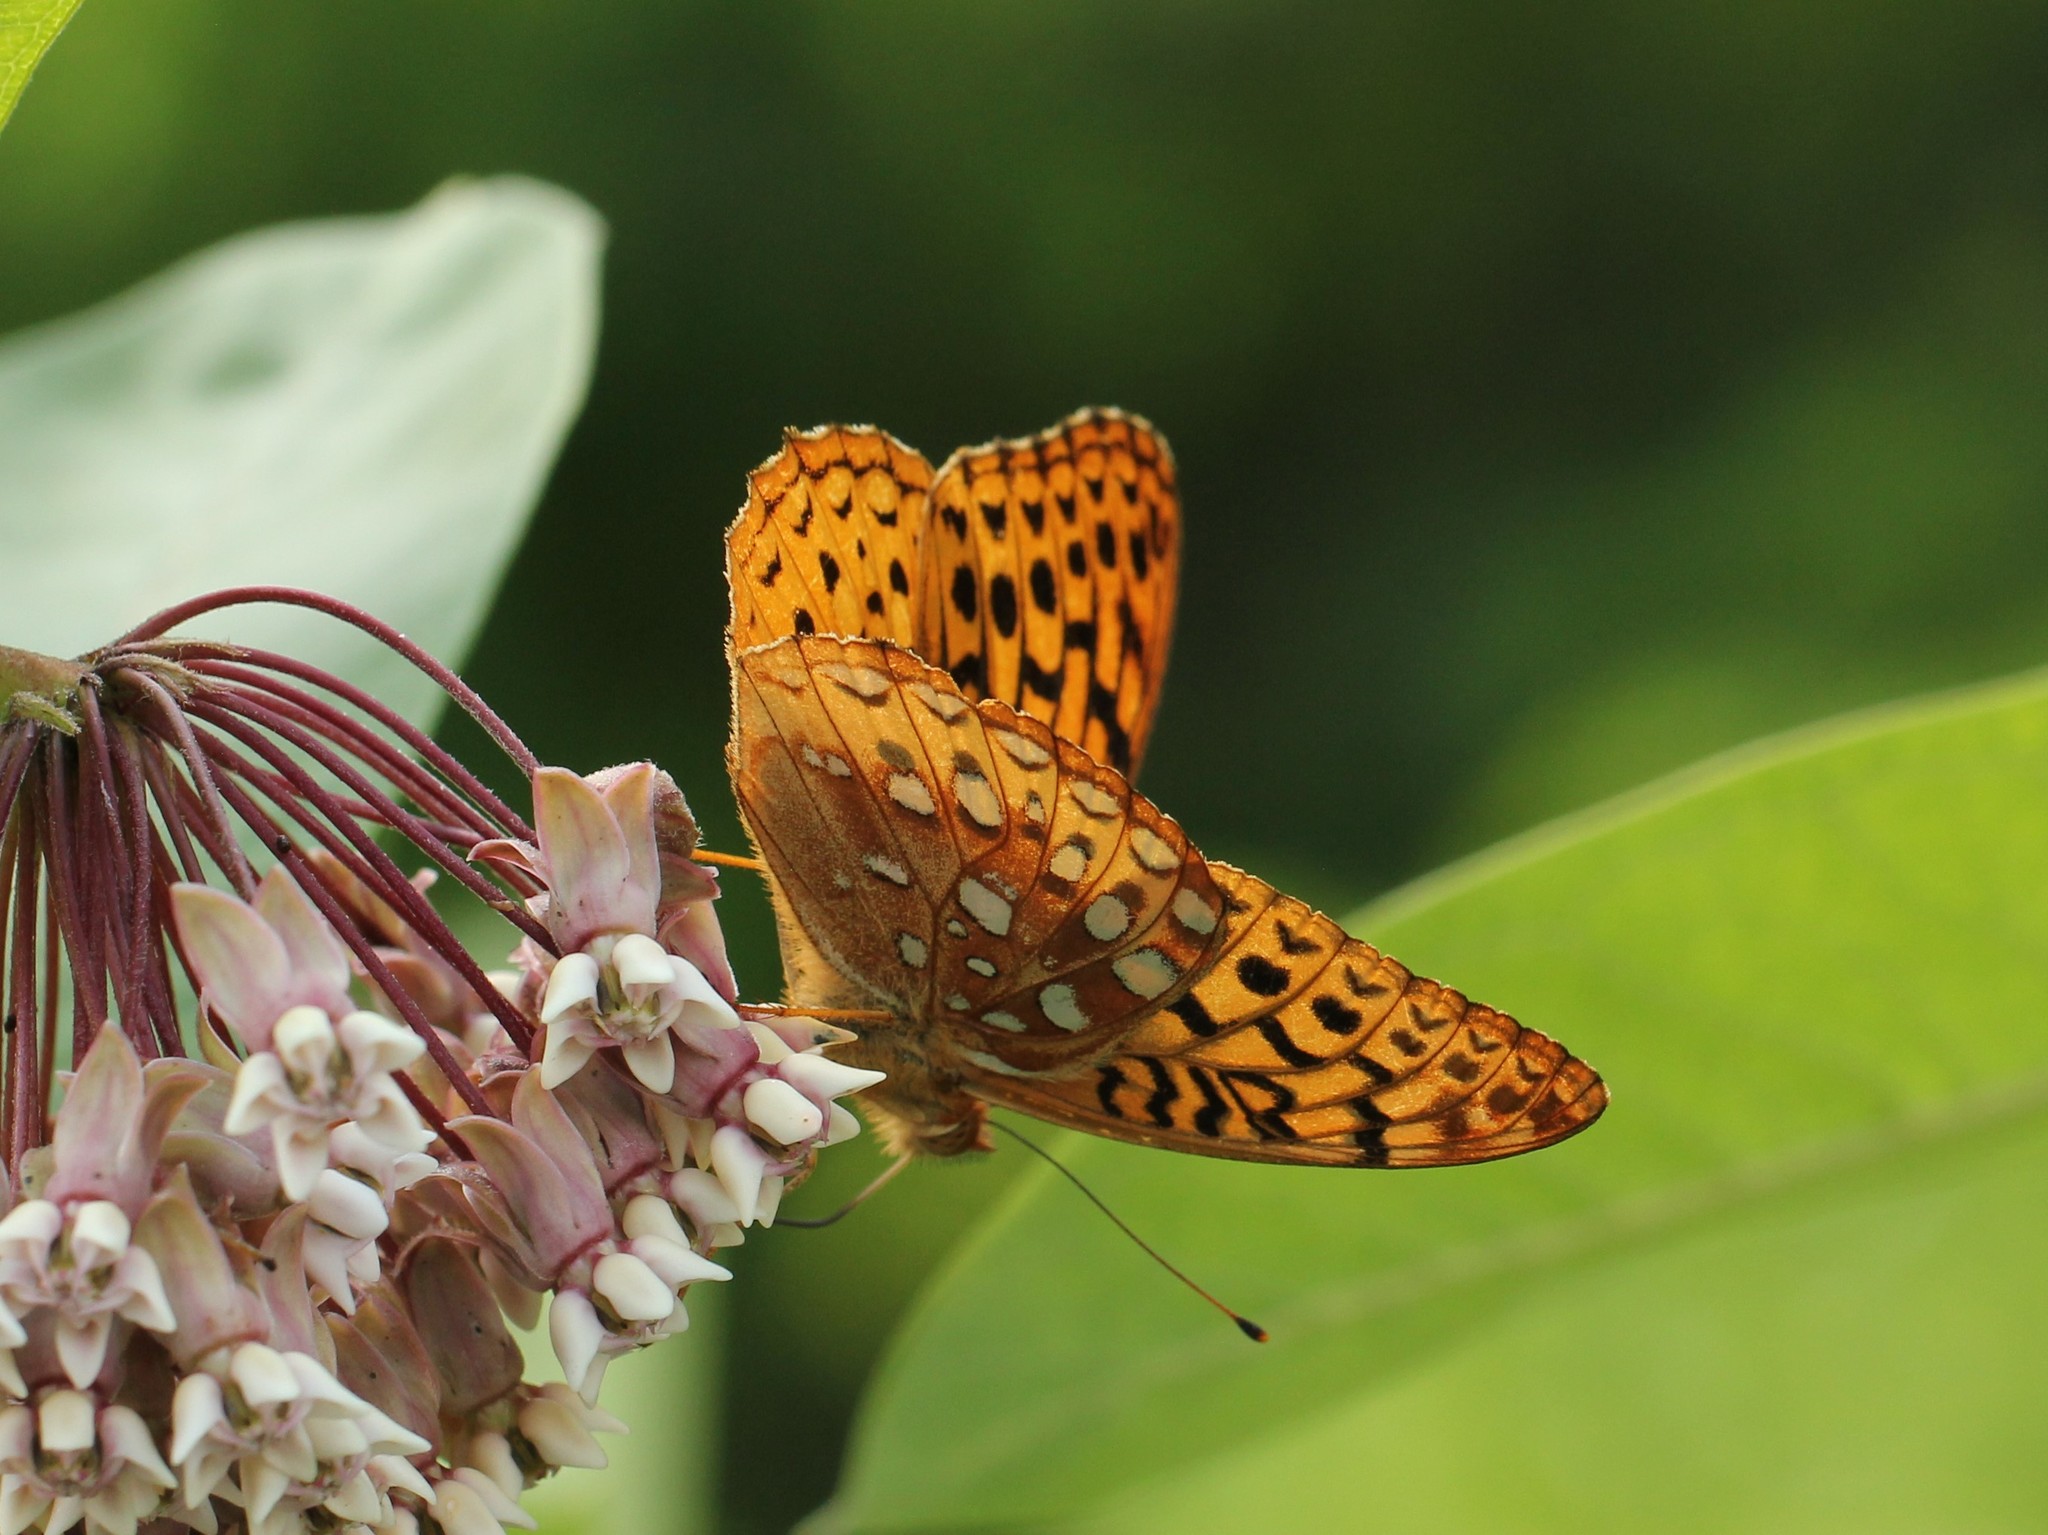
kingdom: Animalia
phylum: Arthropoda
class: Insecta
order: Lepidoptera
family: Nymphalidae
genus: Speyeria
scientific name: Speyeria cybele
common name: Great spangled fritillary
